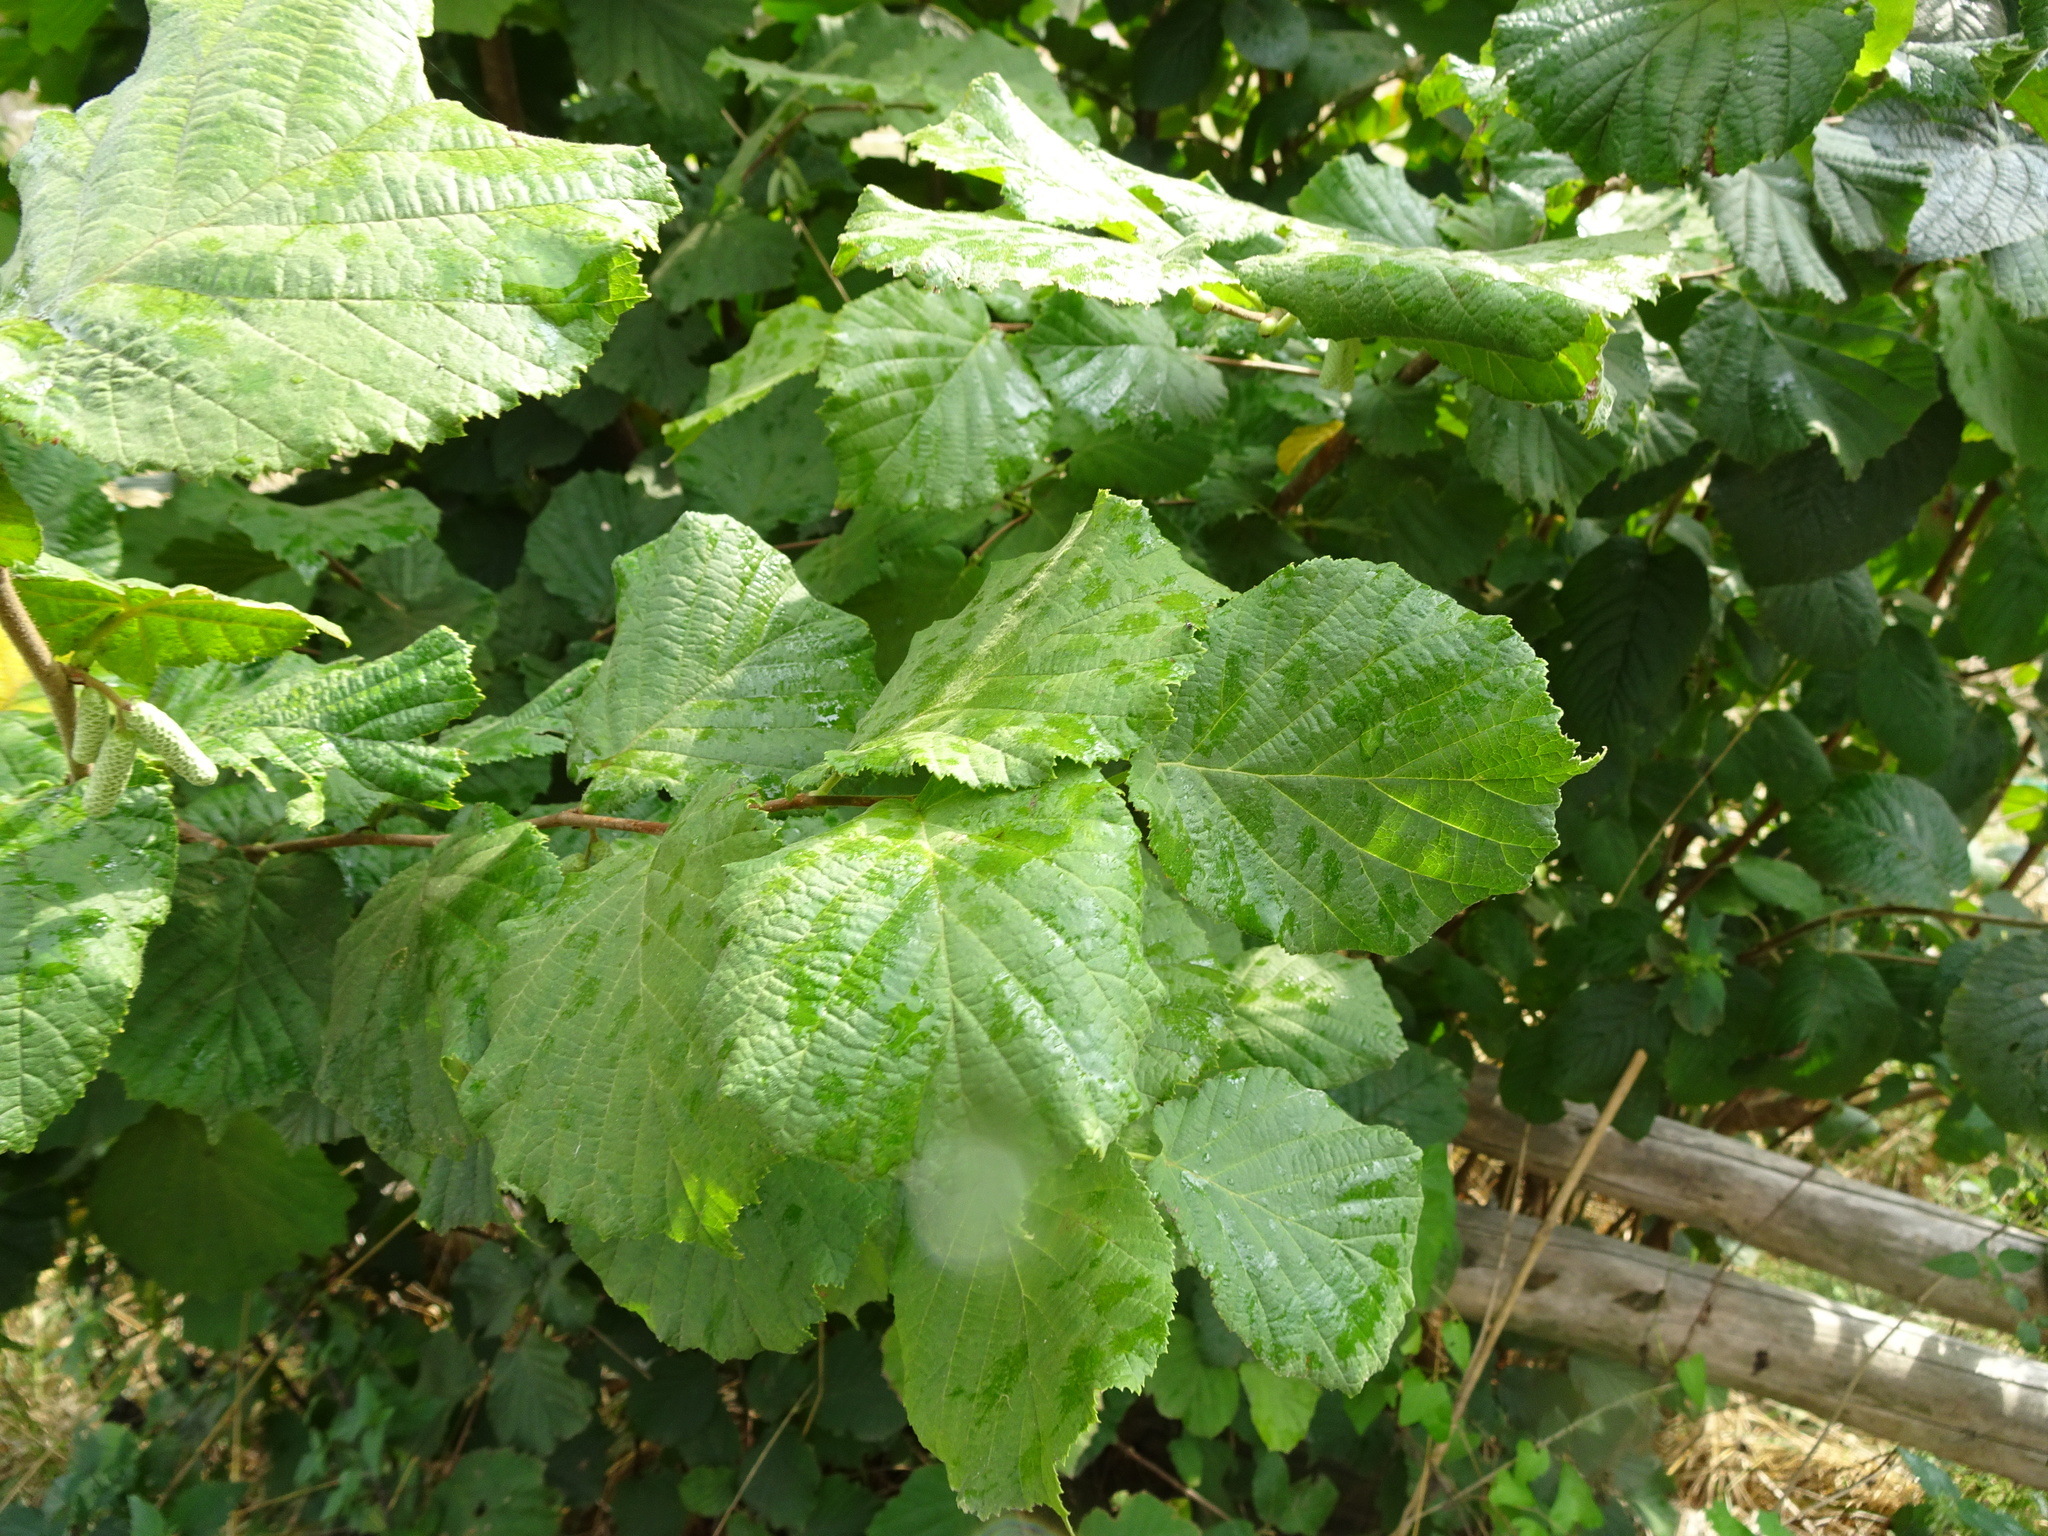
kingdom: Plantae
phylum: Tracheophyta
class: Magnoliopsida
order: Fagales
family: Betulaceae
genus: Corylus
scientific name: Corylus avellana
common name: European hazel
